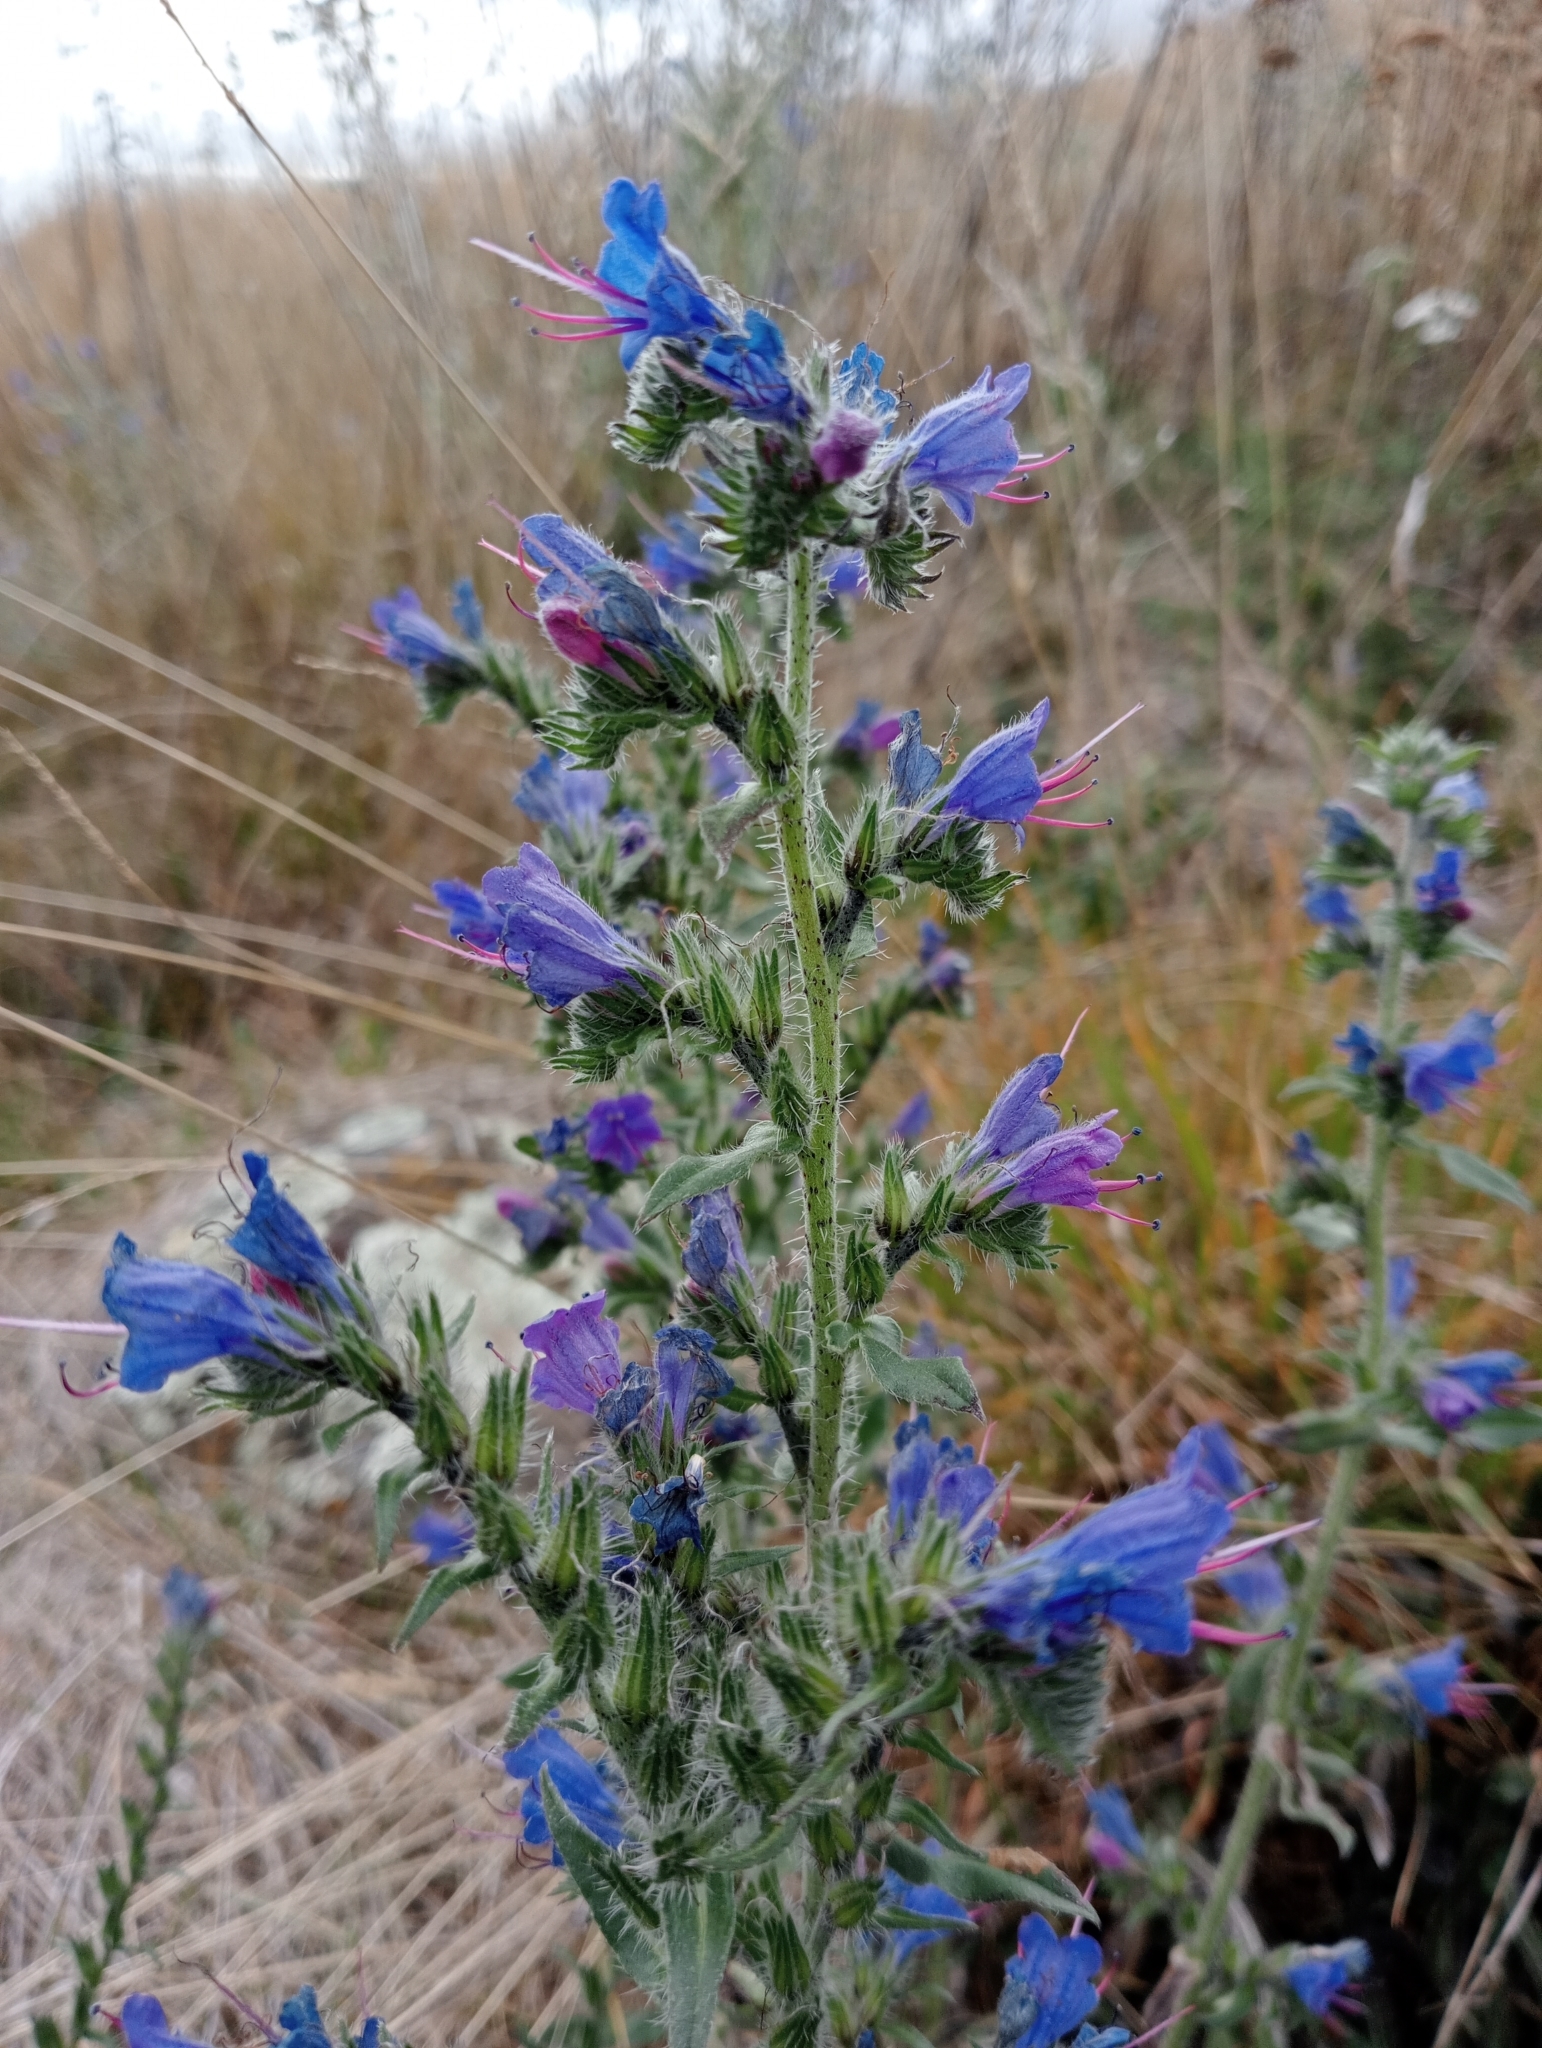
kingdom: Plantae
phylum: Tracheophyta
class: Magnoliopsida
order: Boraginales
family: Boraginaceae
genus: Echium
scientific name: Echium vulgare
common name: Common viper's bugloss
